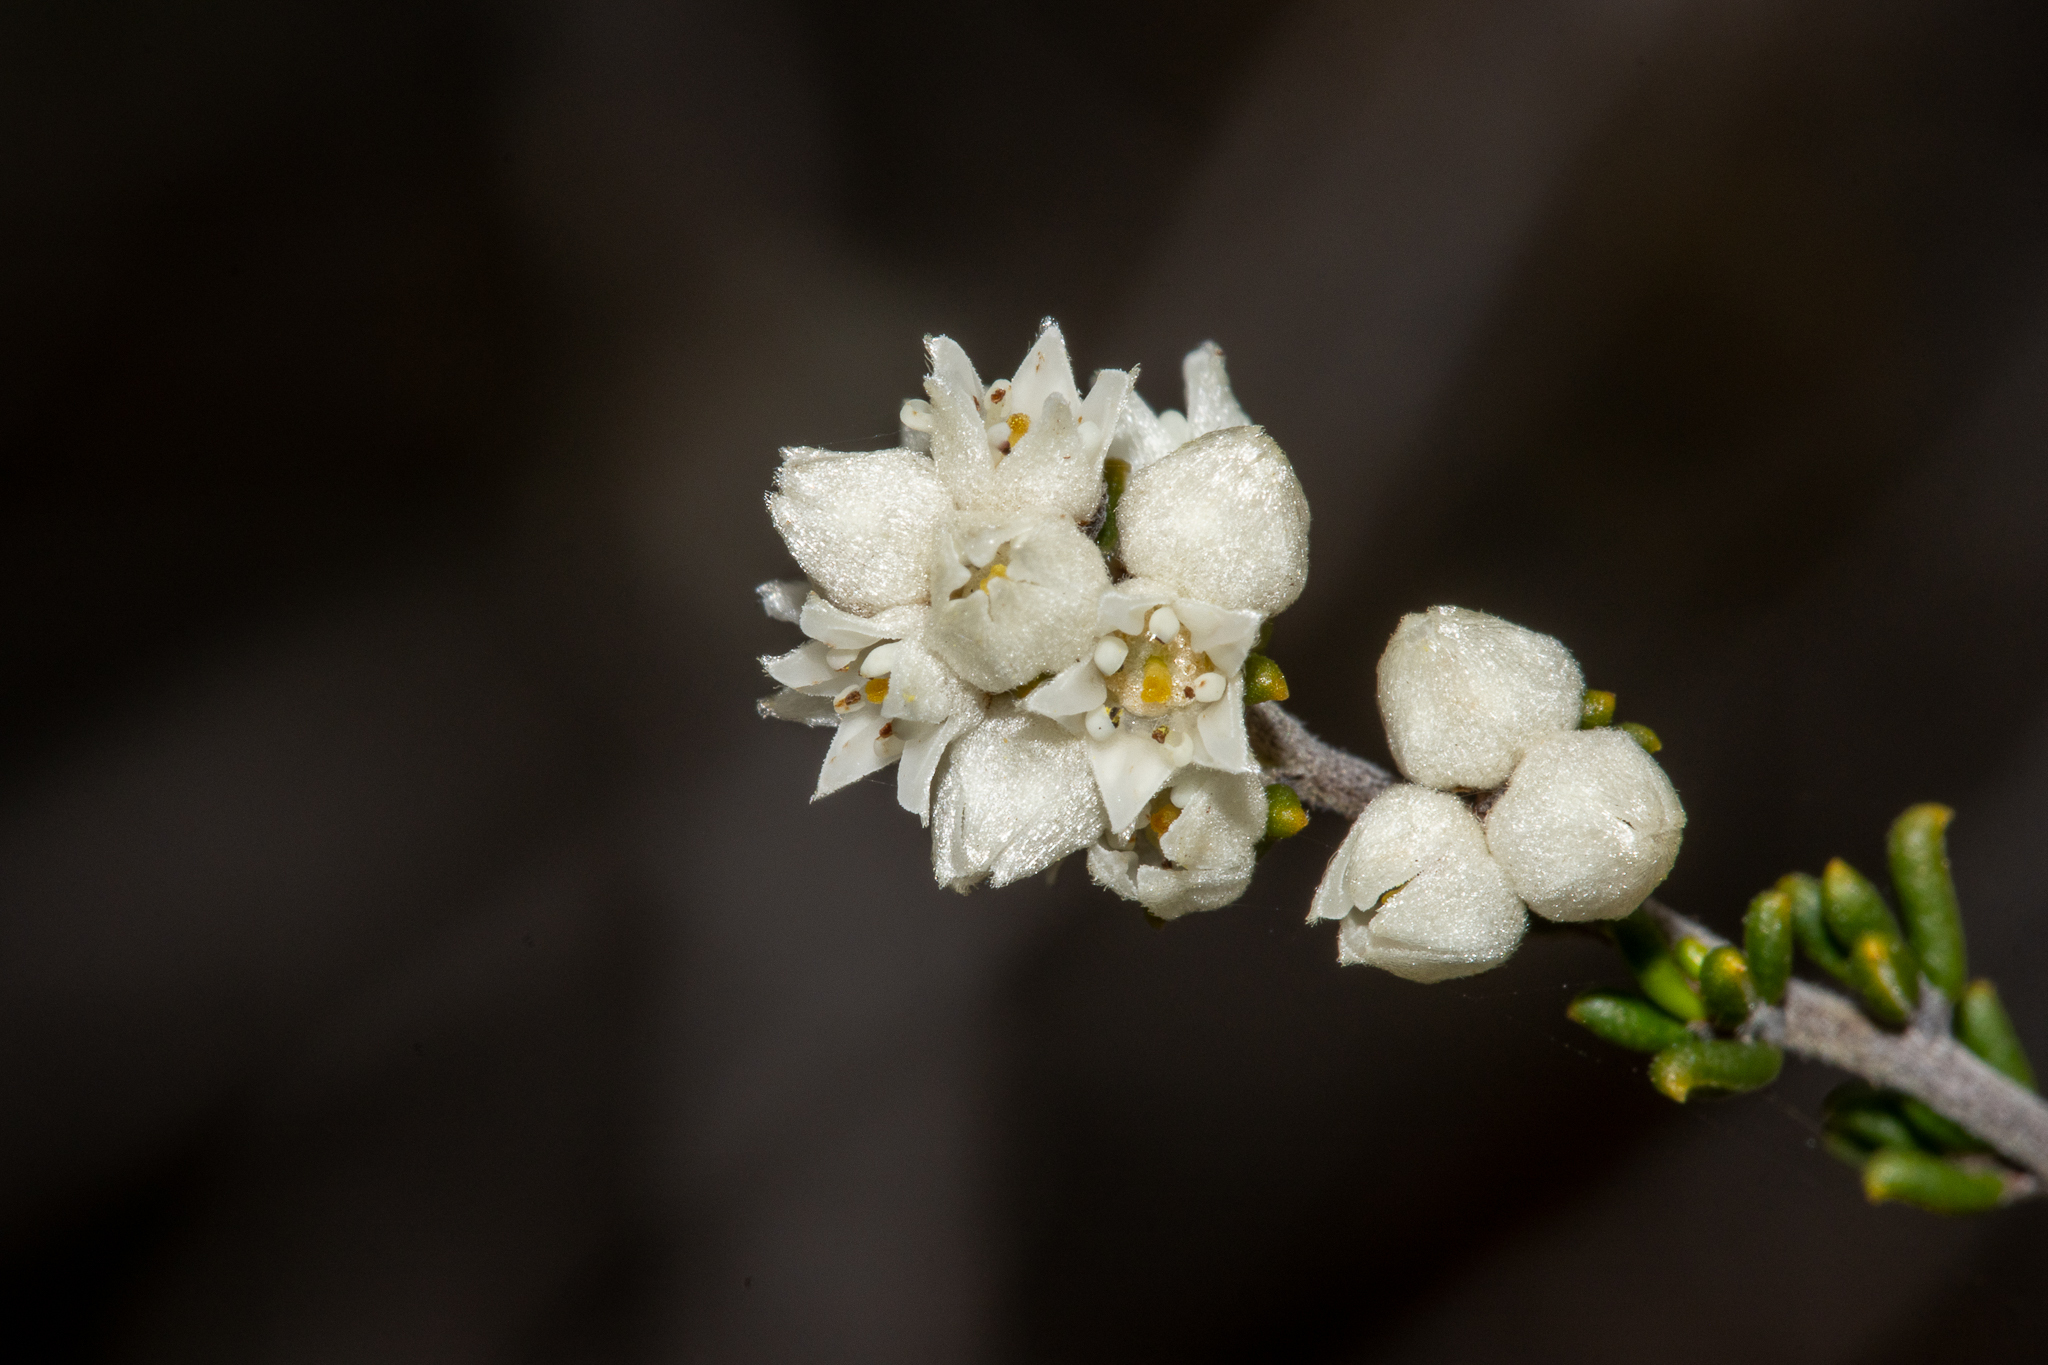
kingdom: Plantae
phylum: Tracheophyta
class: Magnoliopsida
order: Rosales
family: Rhamnaceae
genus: Cryptandra
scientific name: Cryptandra sabulicola
